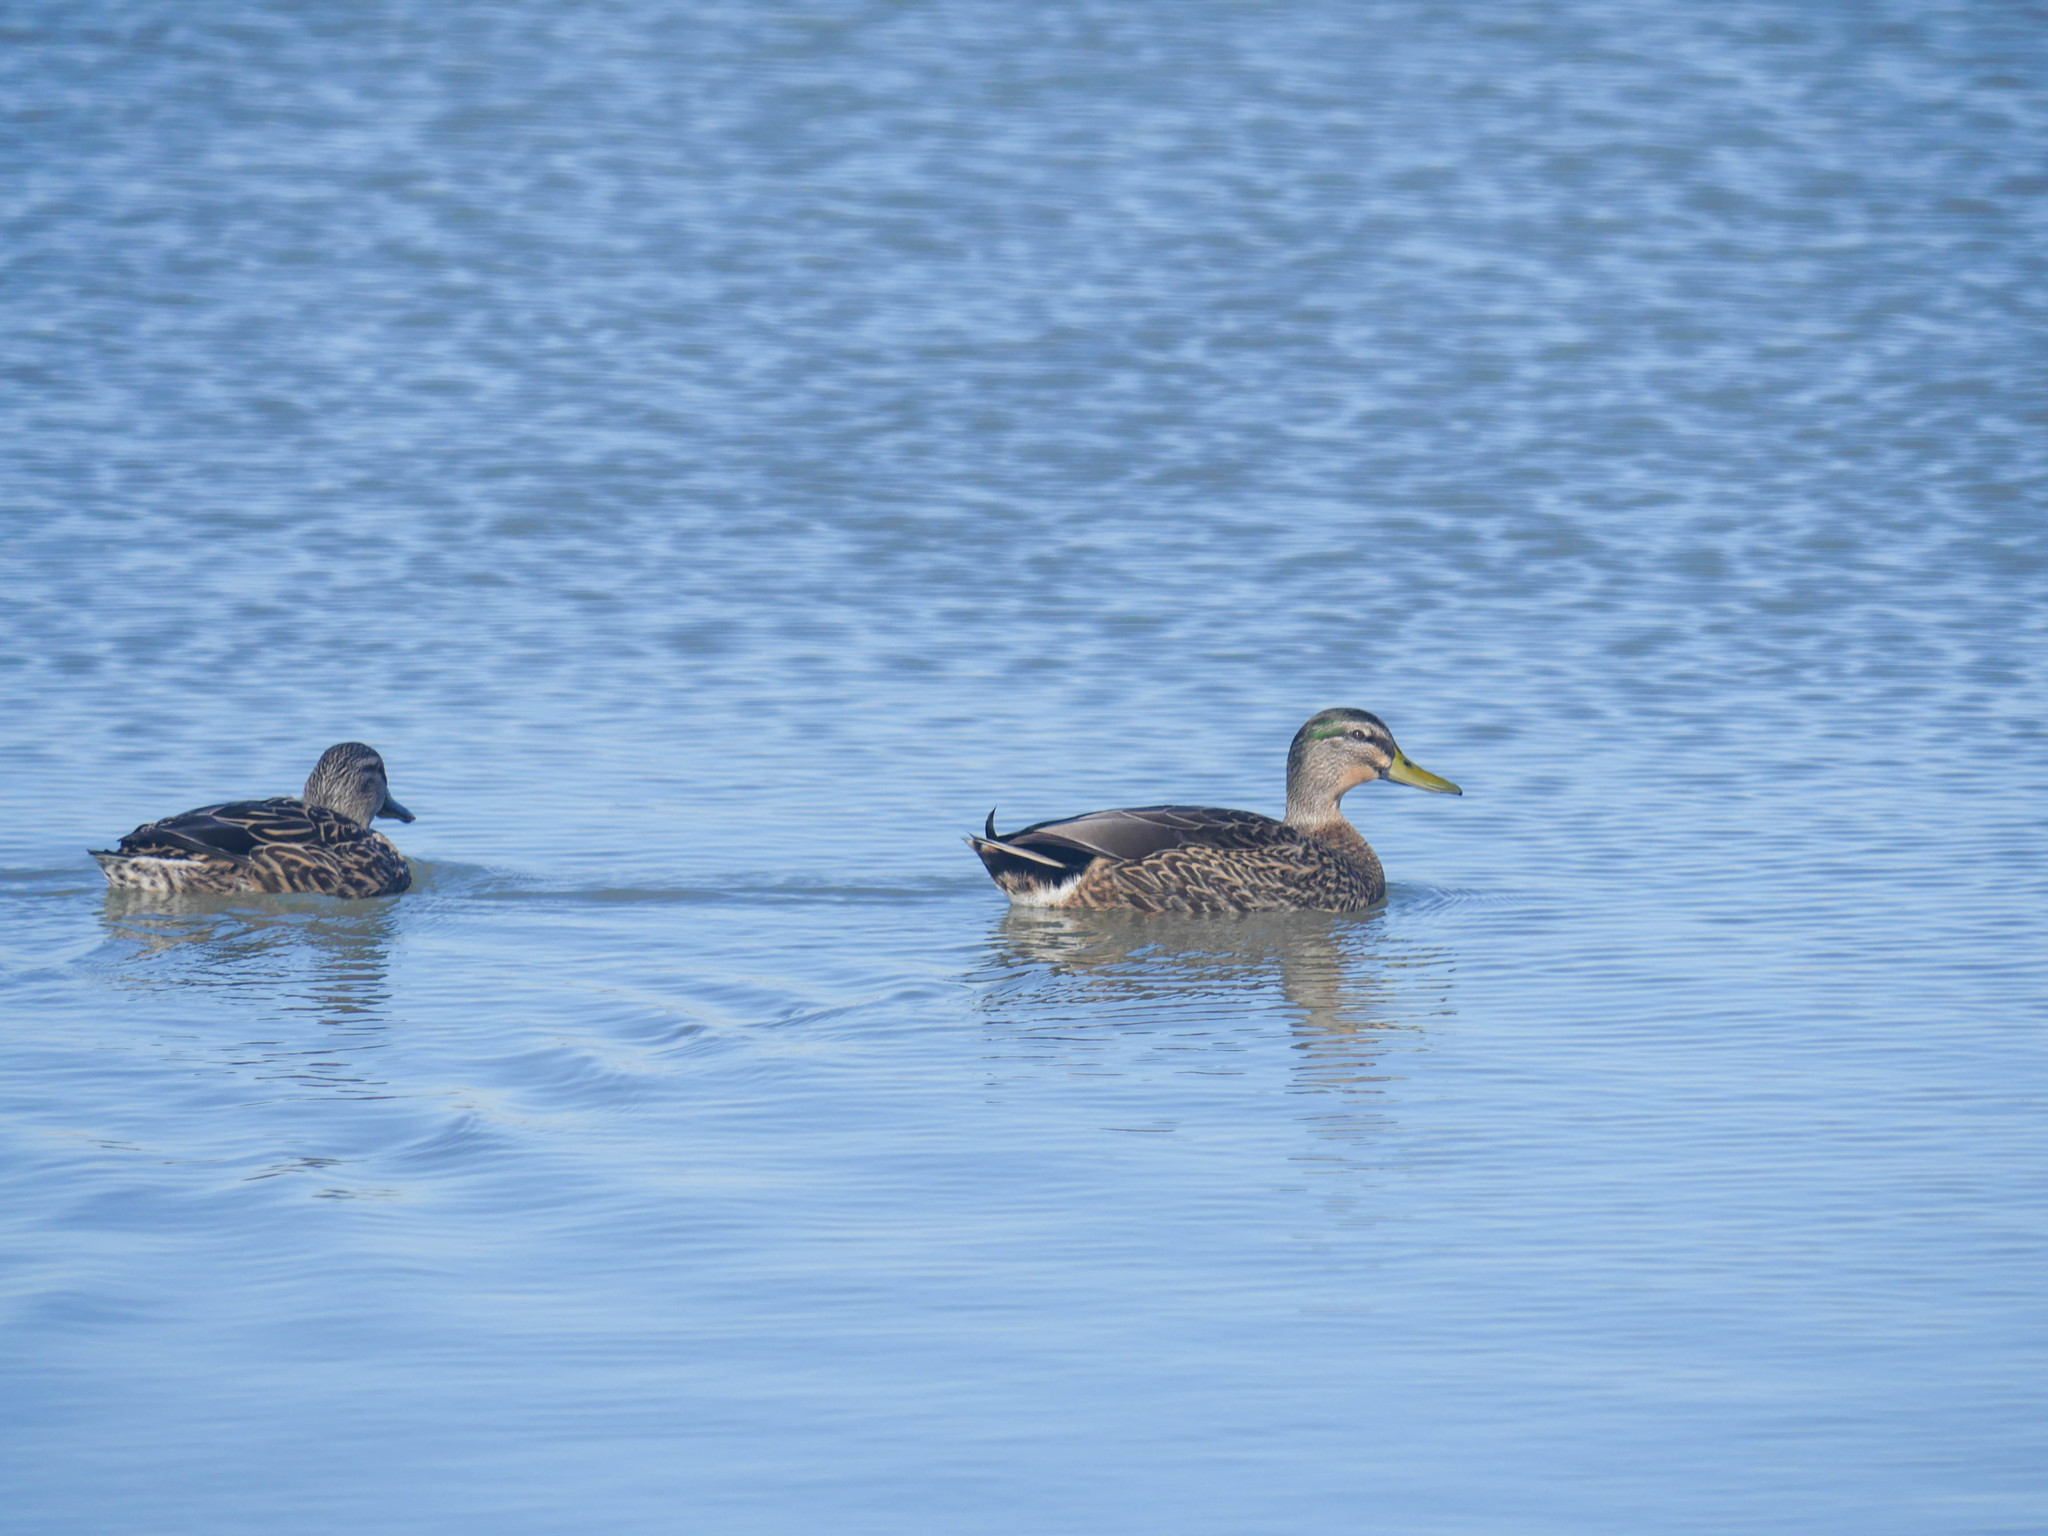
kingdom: Animalia
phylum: Chordata
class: Aves
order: Anseriformes
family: Anatidae
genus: Anas
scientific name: Anas
